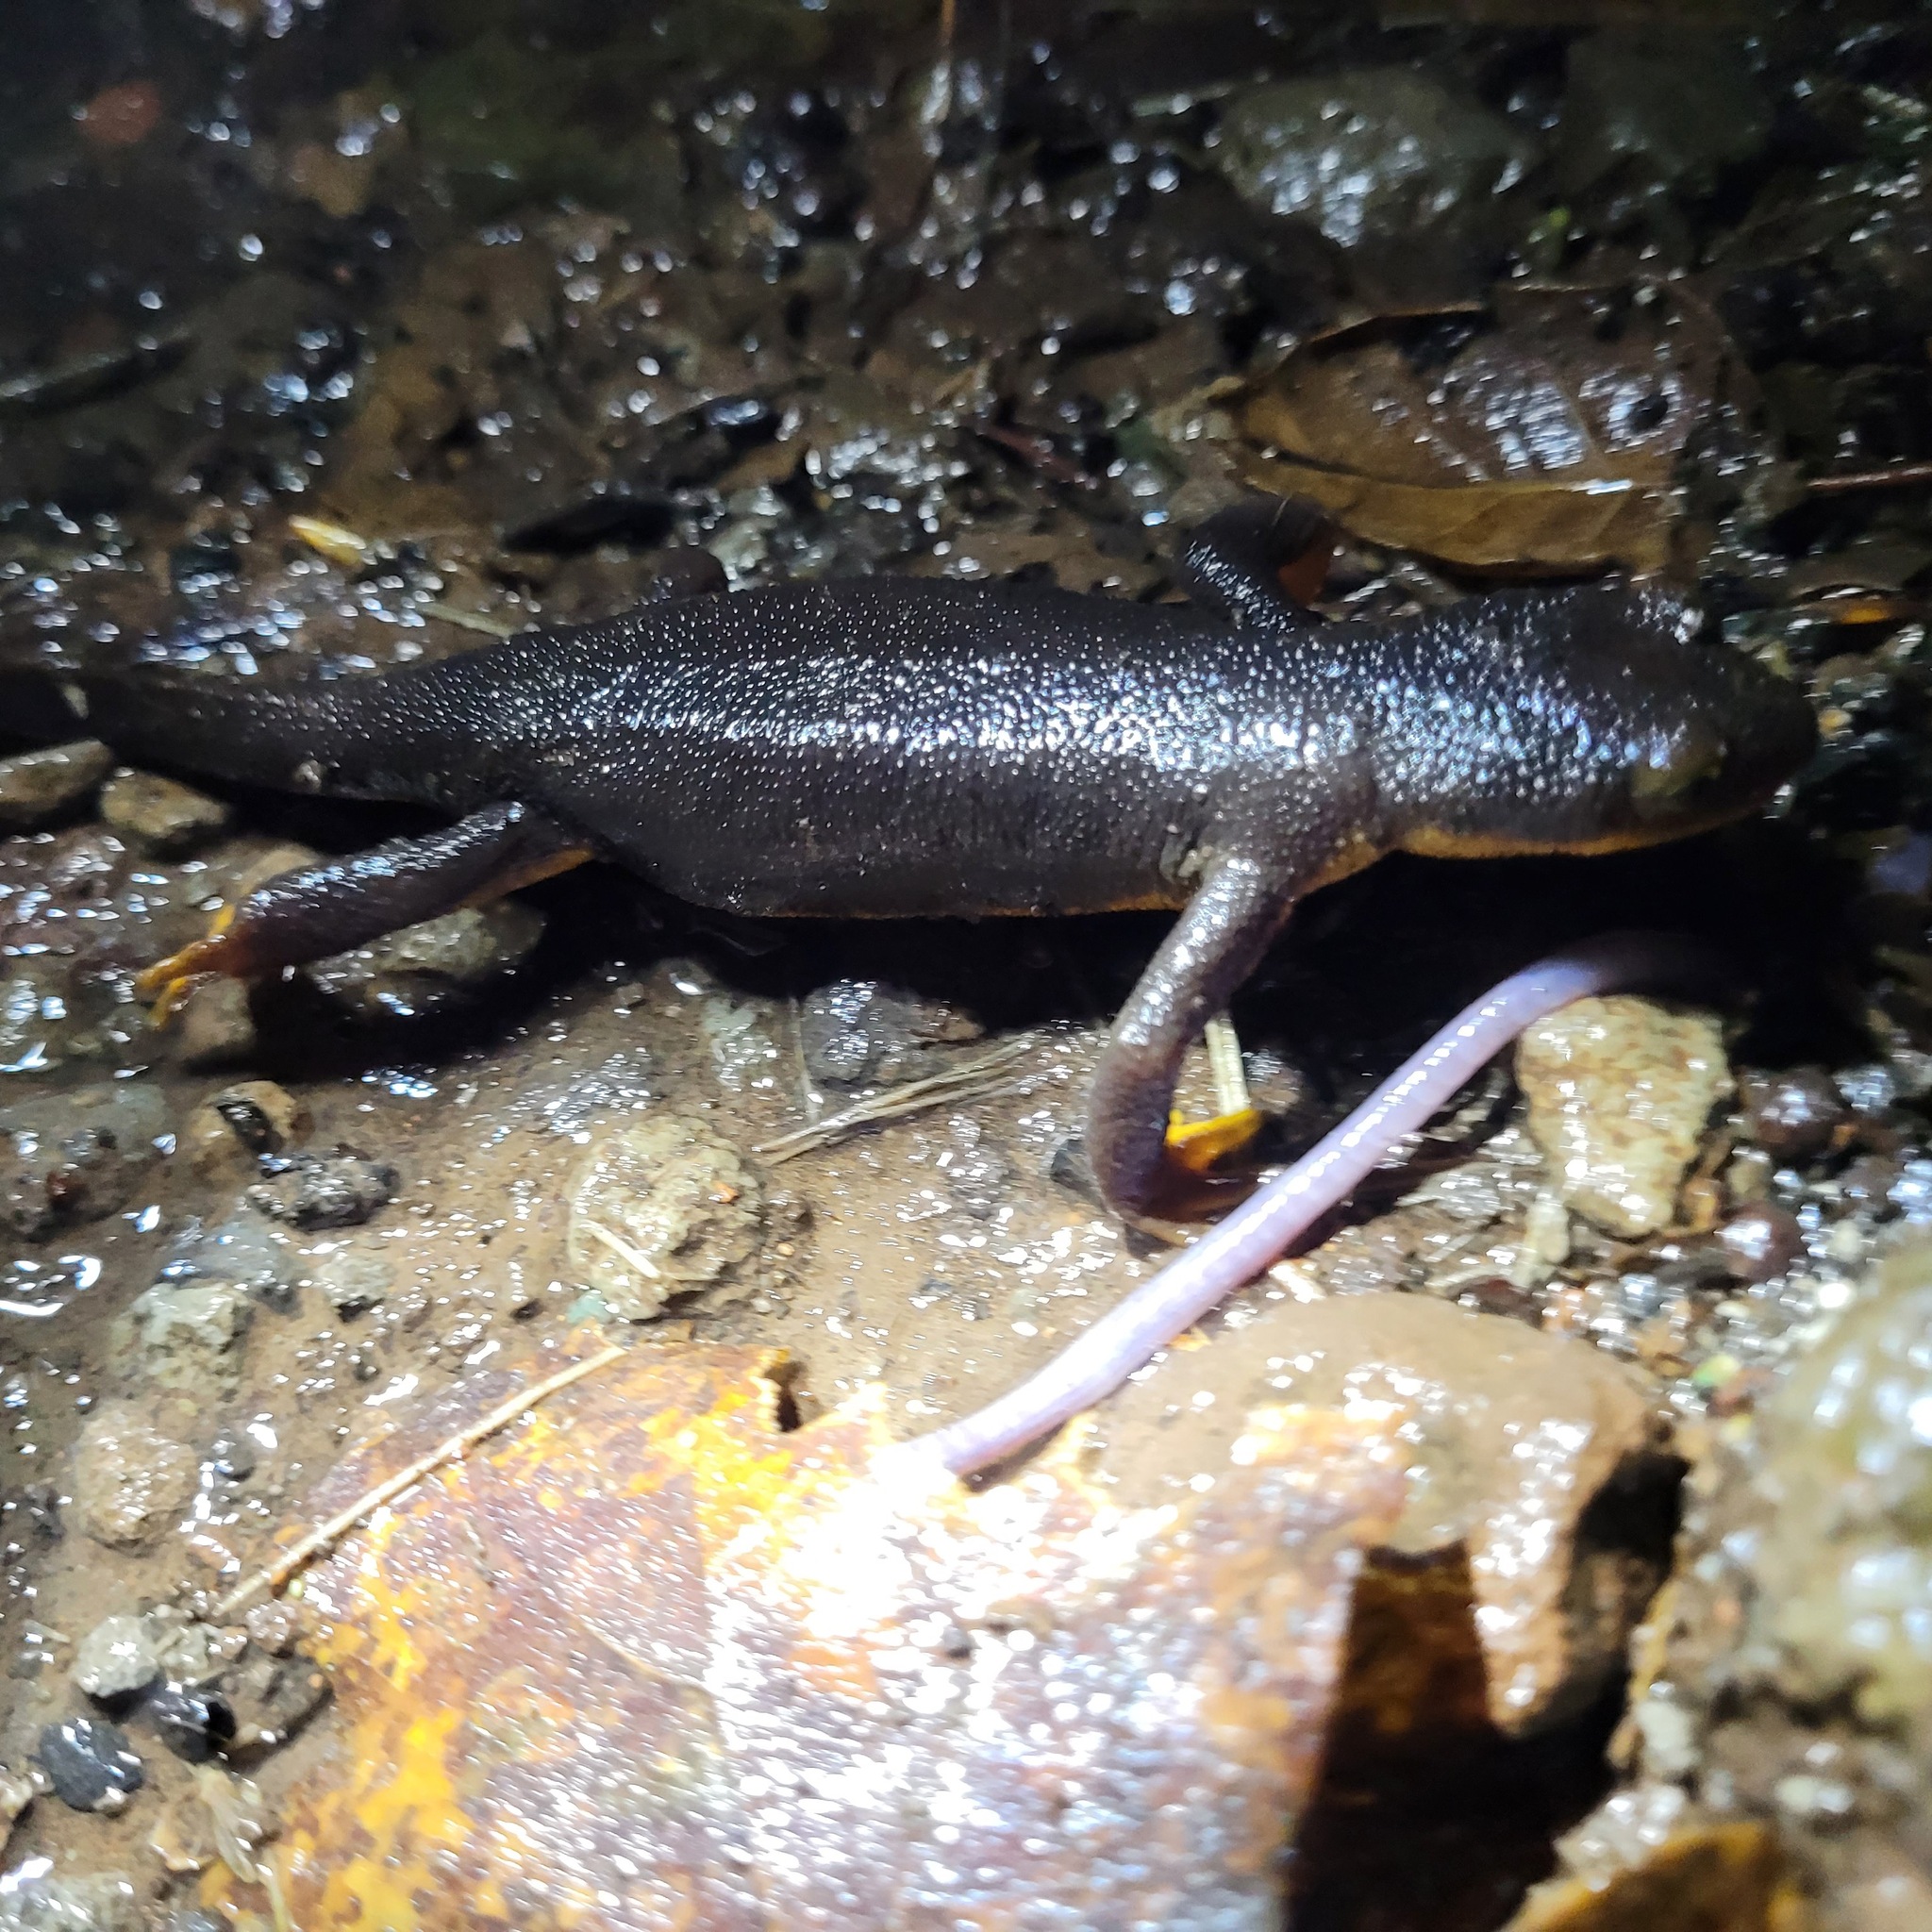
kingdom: Animalia
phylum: Chordata
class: Amphibia
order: Caudata
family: Salamandridae
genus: Taricha
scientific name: Taricha torosa
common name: California newt
